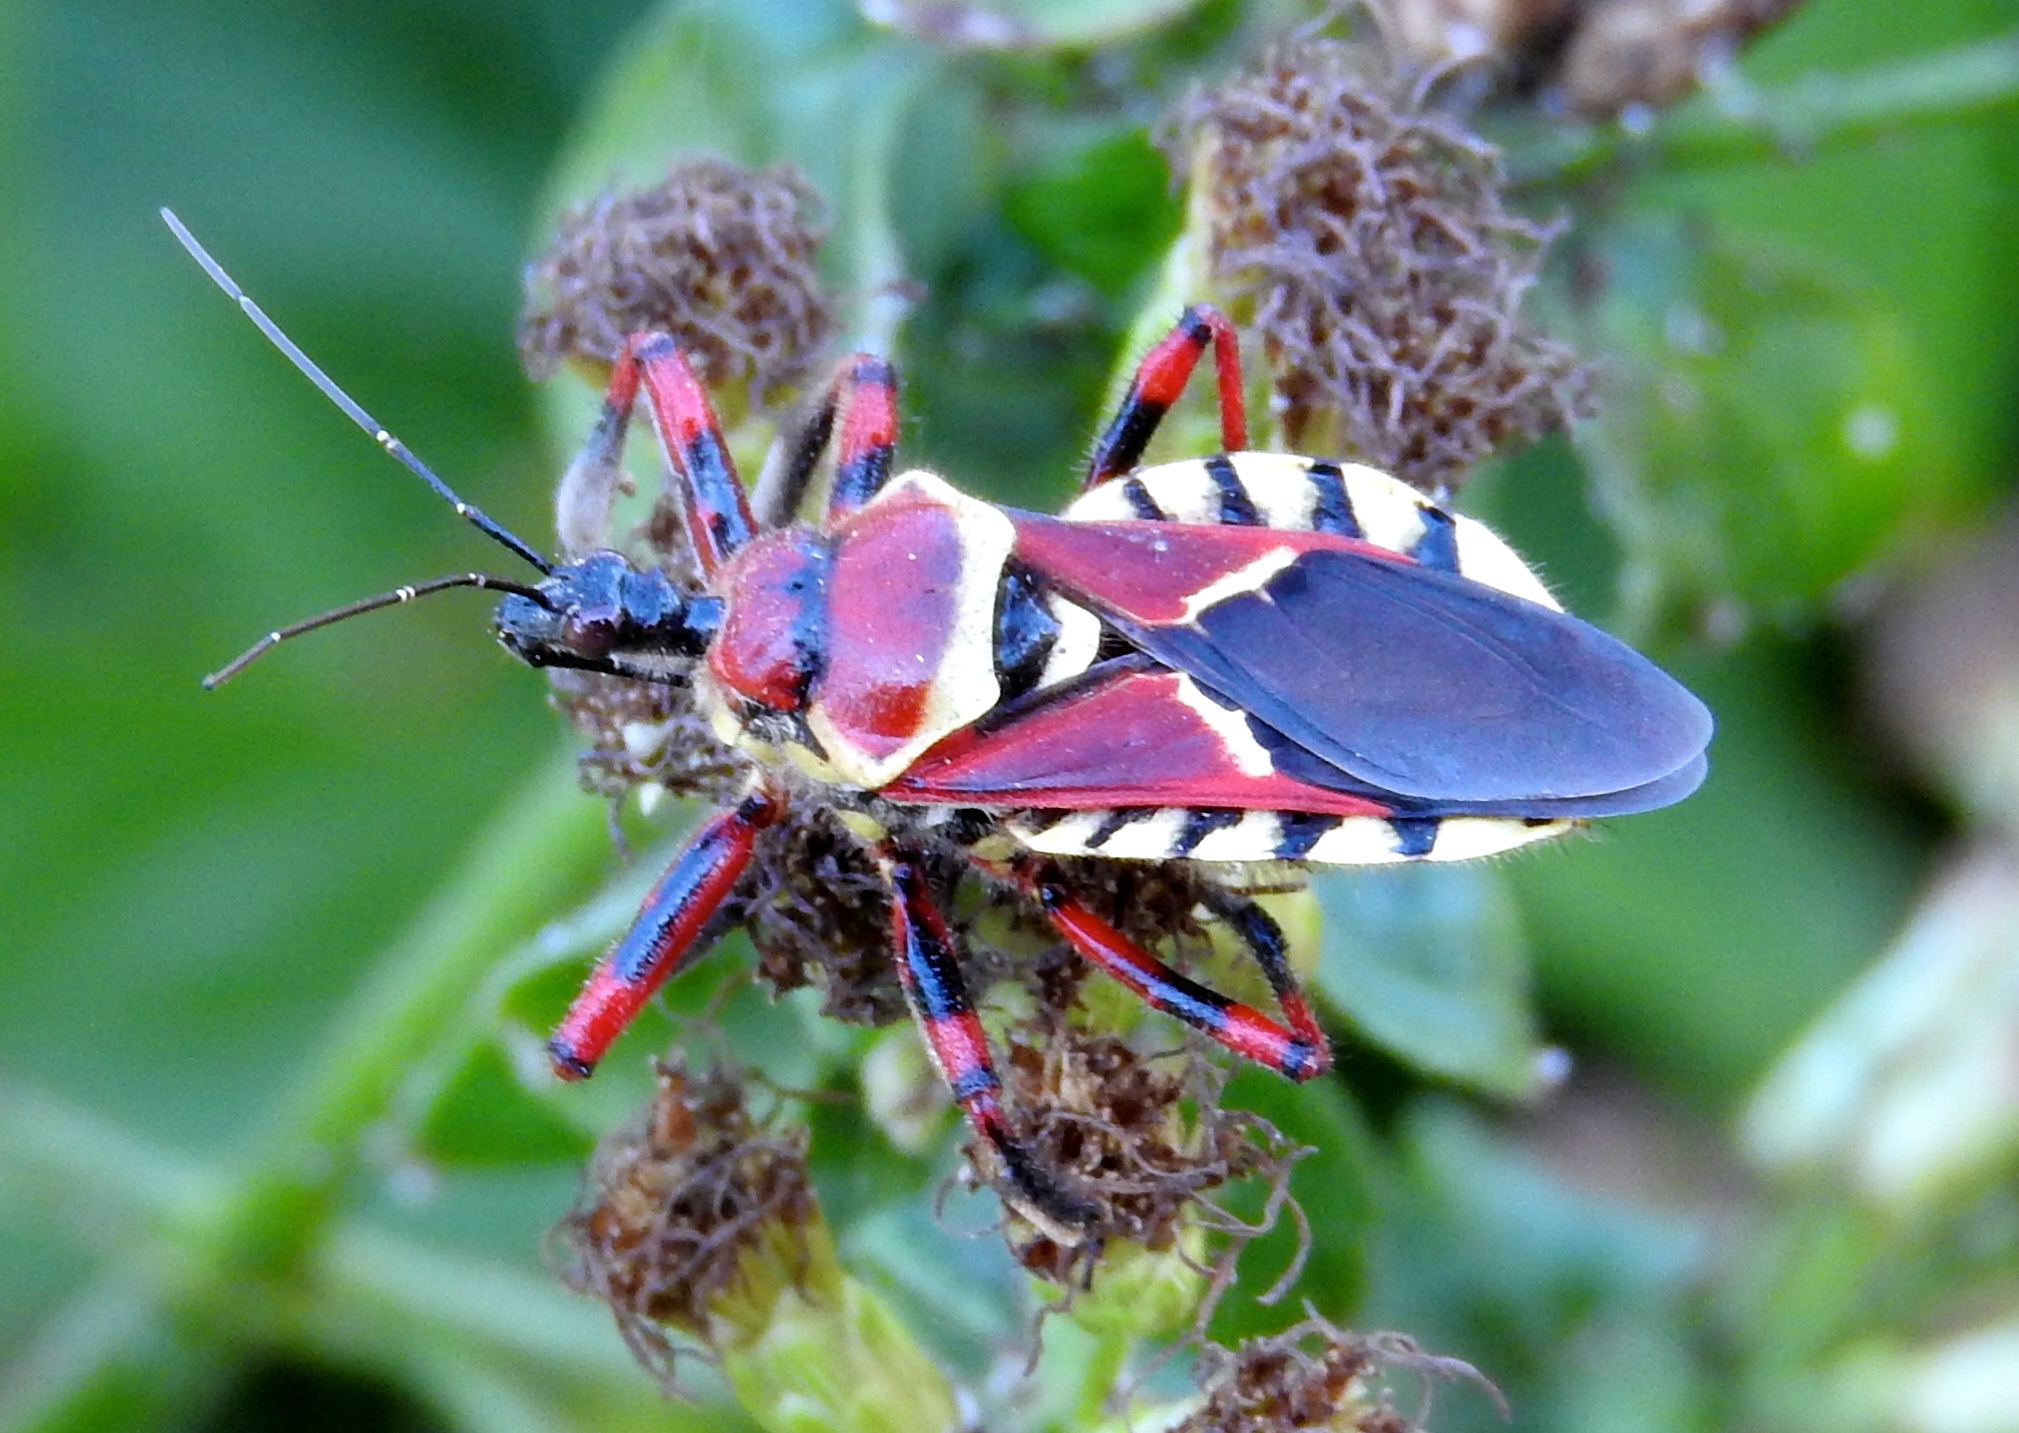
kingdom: Animalia
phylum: Arthropoda
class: Insecta
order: Hemiptera
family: Reduviidae
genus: Apiomerus
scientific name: Apiomerus flaviventris
